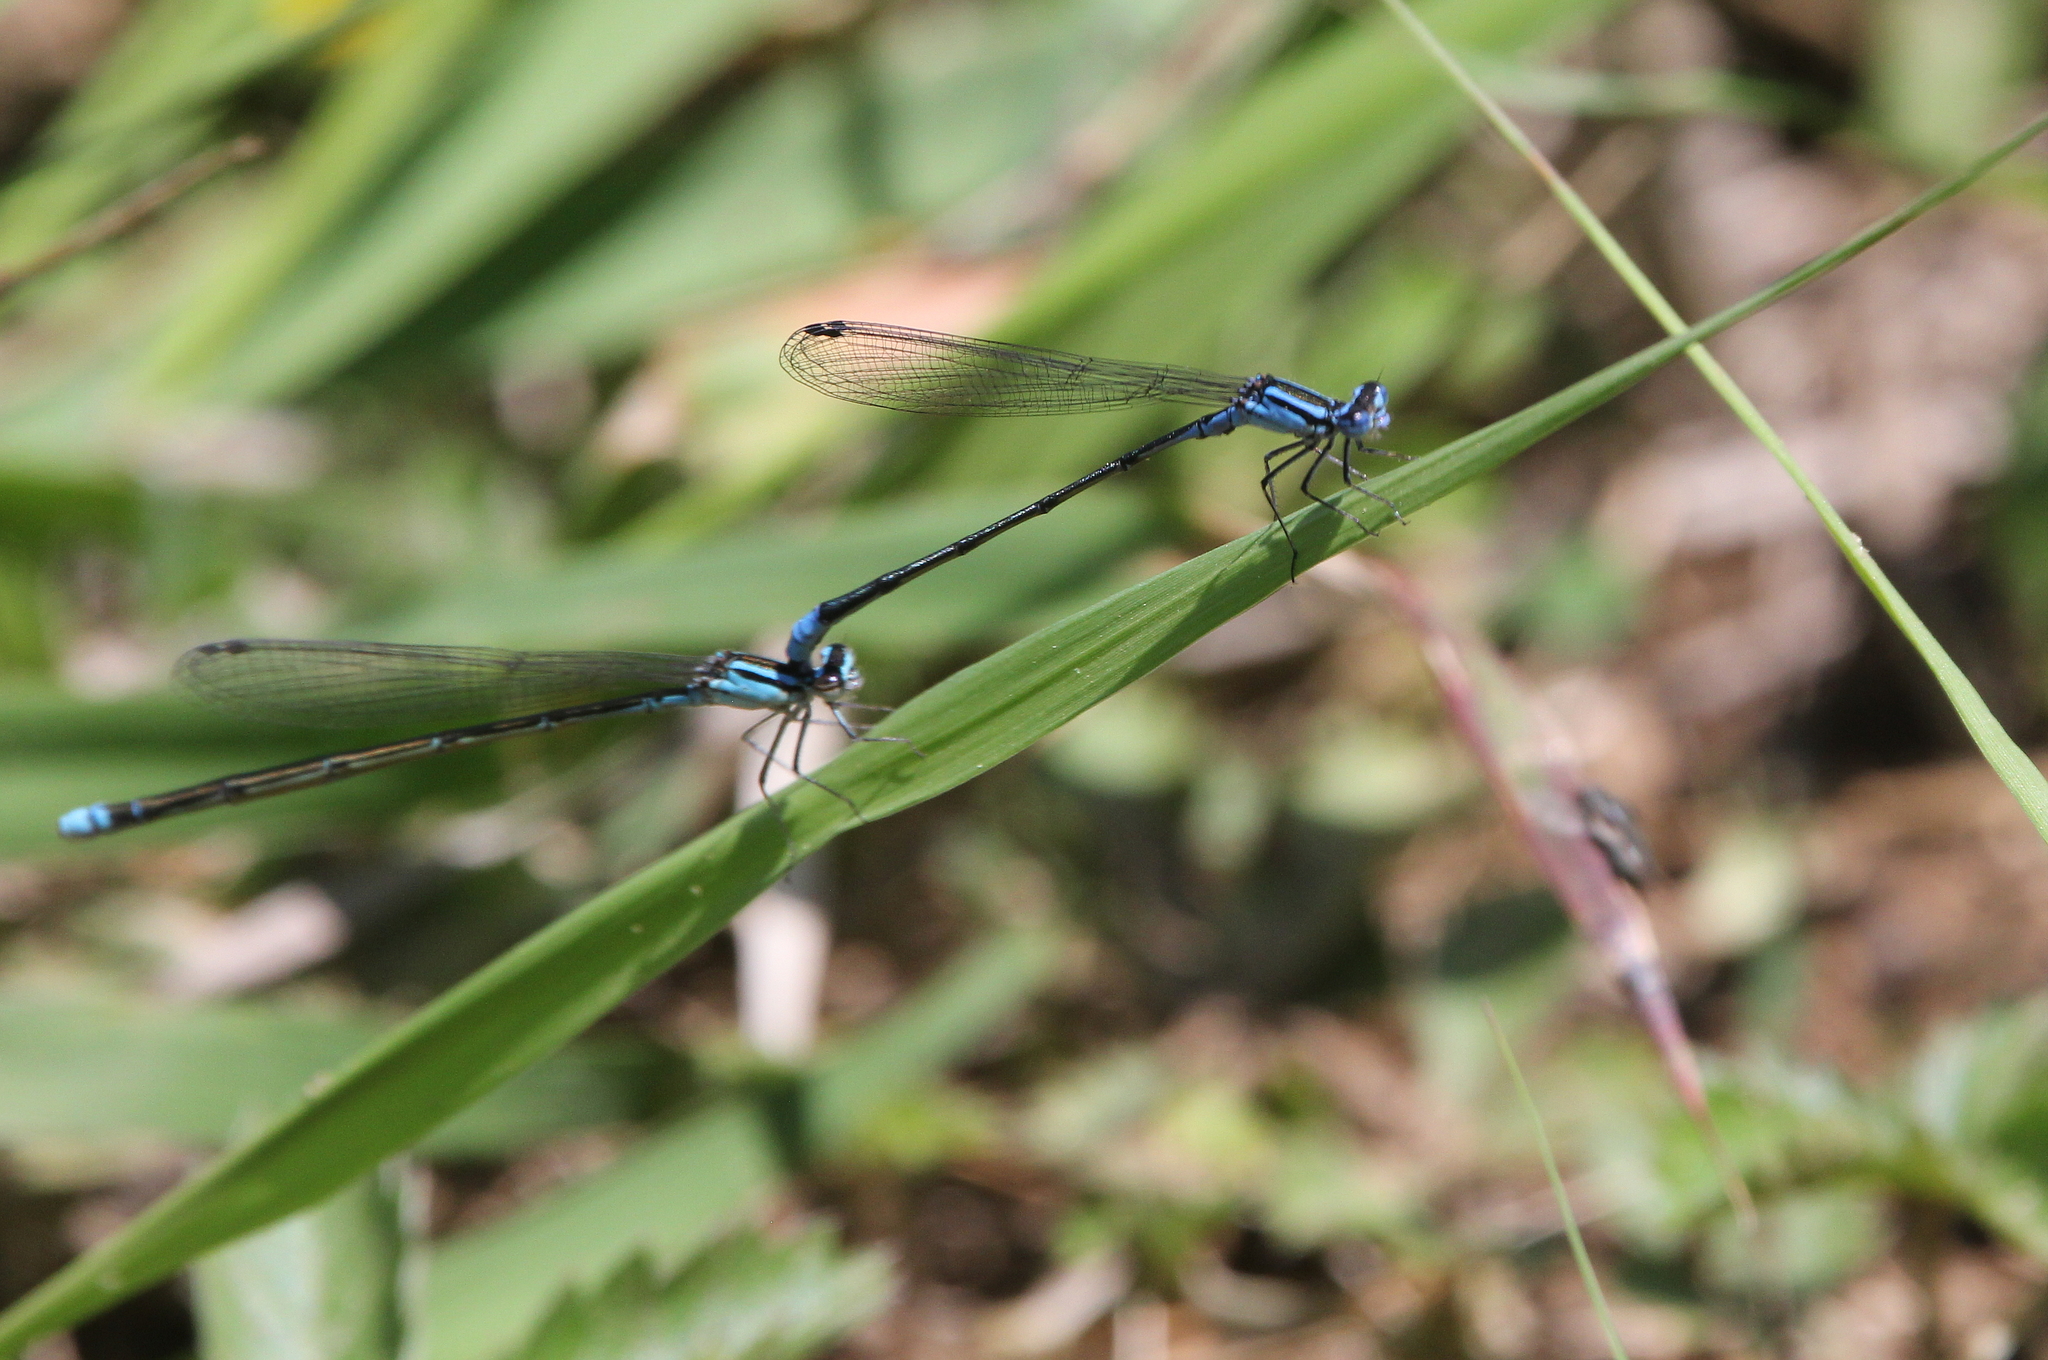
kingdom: Animalia
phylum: Arthropoda
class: Insecta
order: Odonata
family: Coenagrionidae
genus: Enallagma
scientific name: Enallagma divagans
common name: Turquoise bluet
